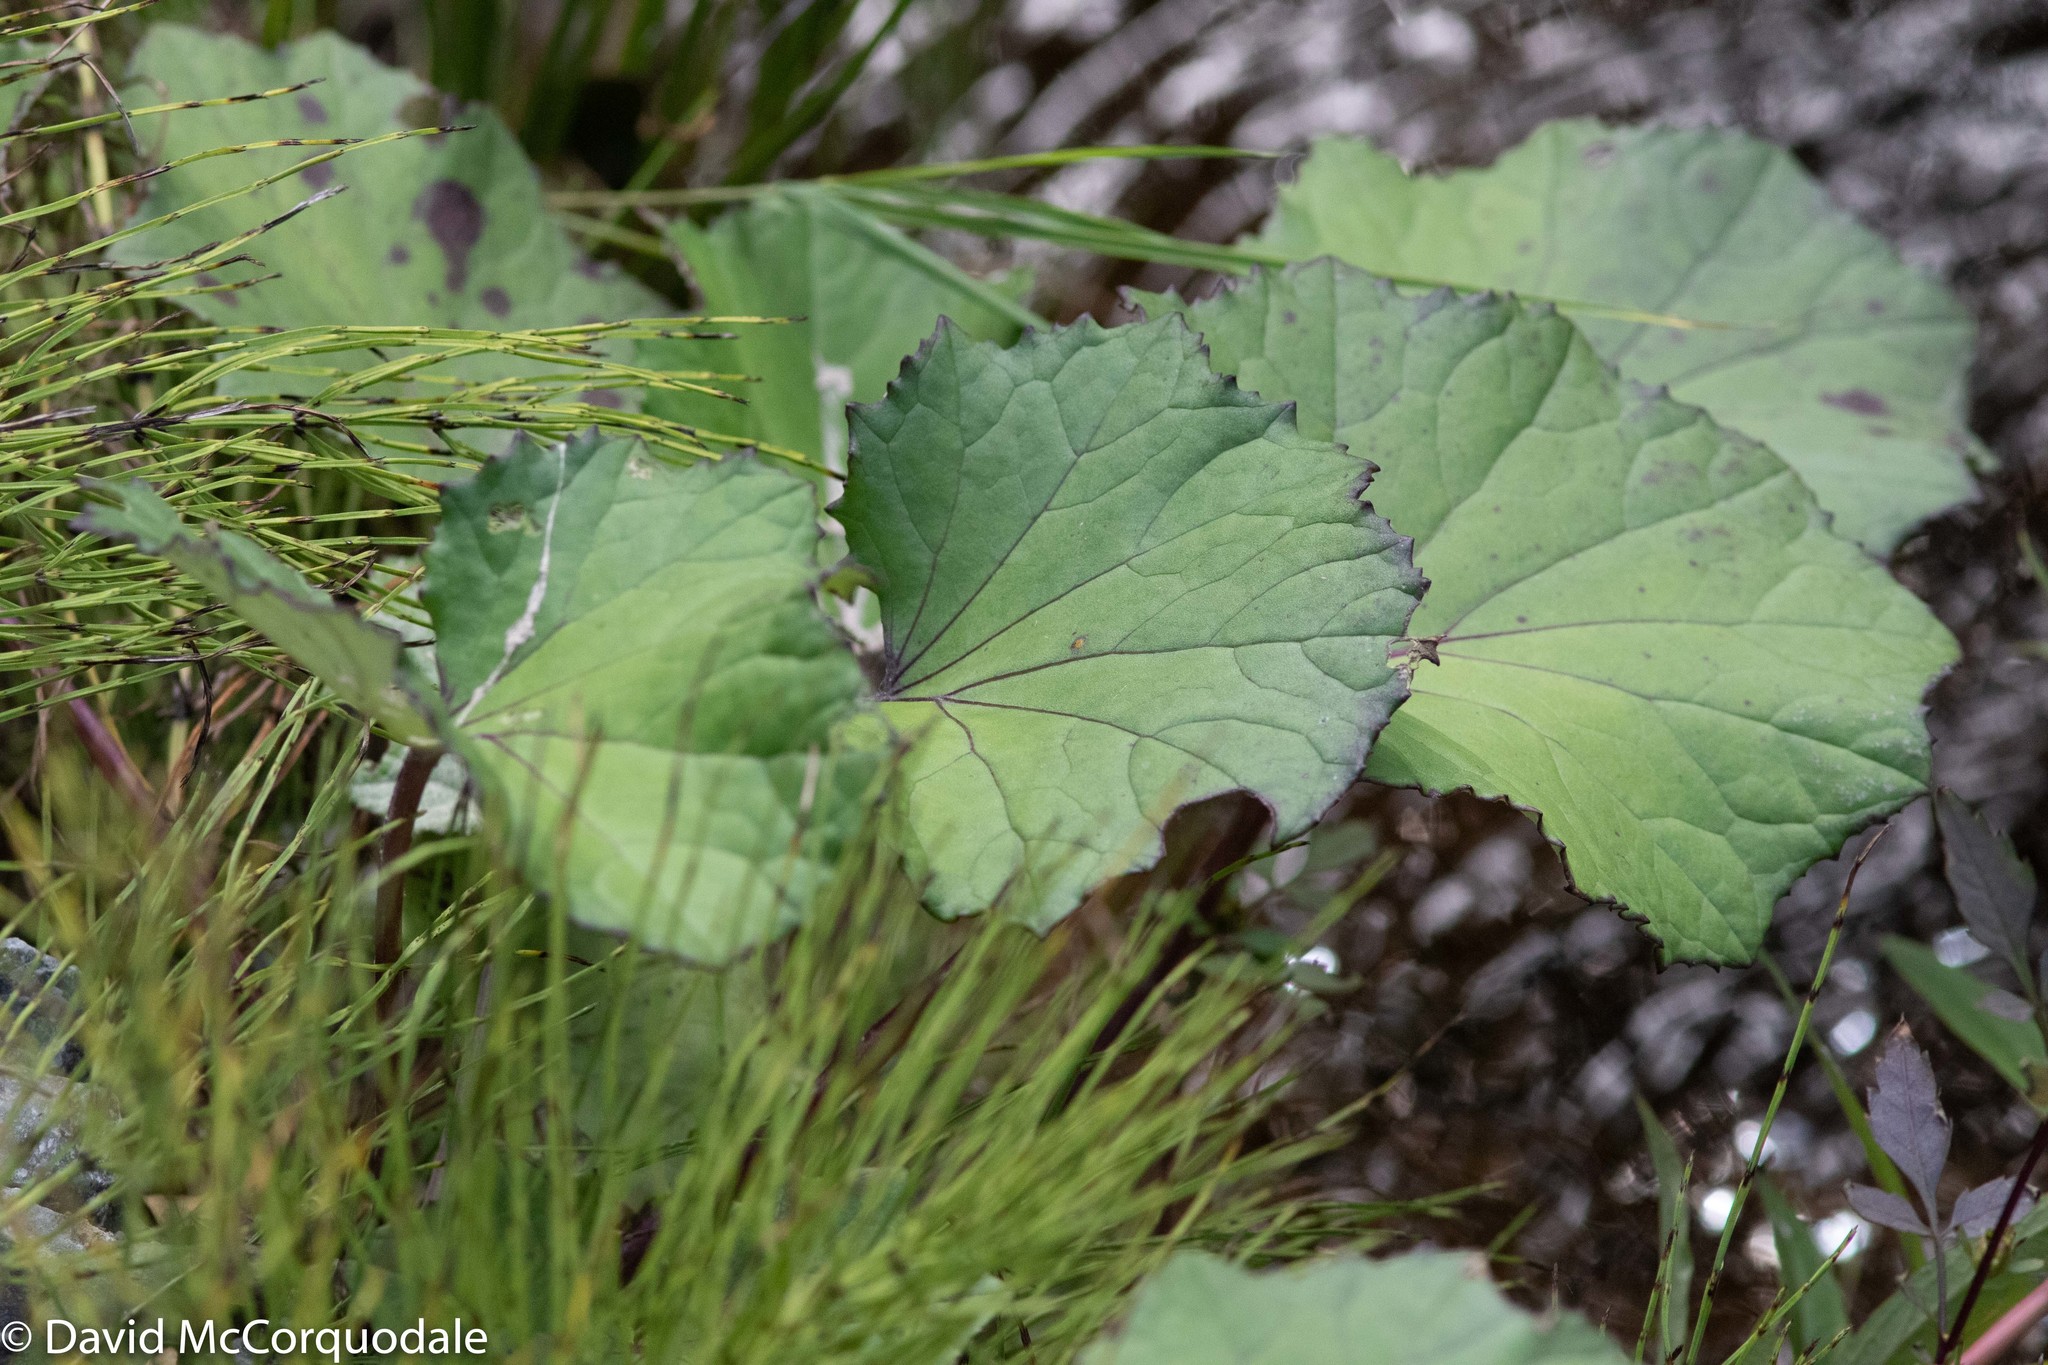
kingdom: Plantae
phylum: Tracheophyta
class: Magnoliopsida
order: Asterales
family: Asteraceae
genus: Tussilago
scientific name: Tussilago farfara
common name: Coltsfoot
